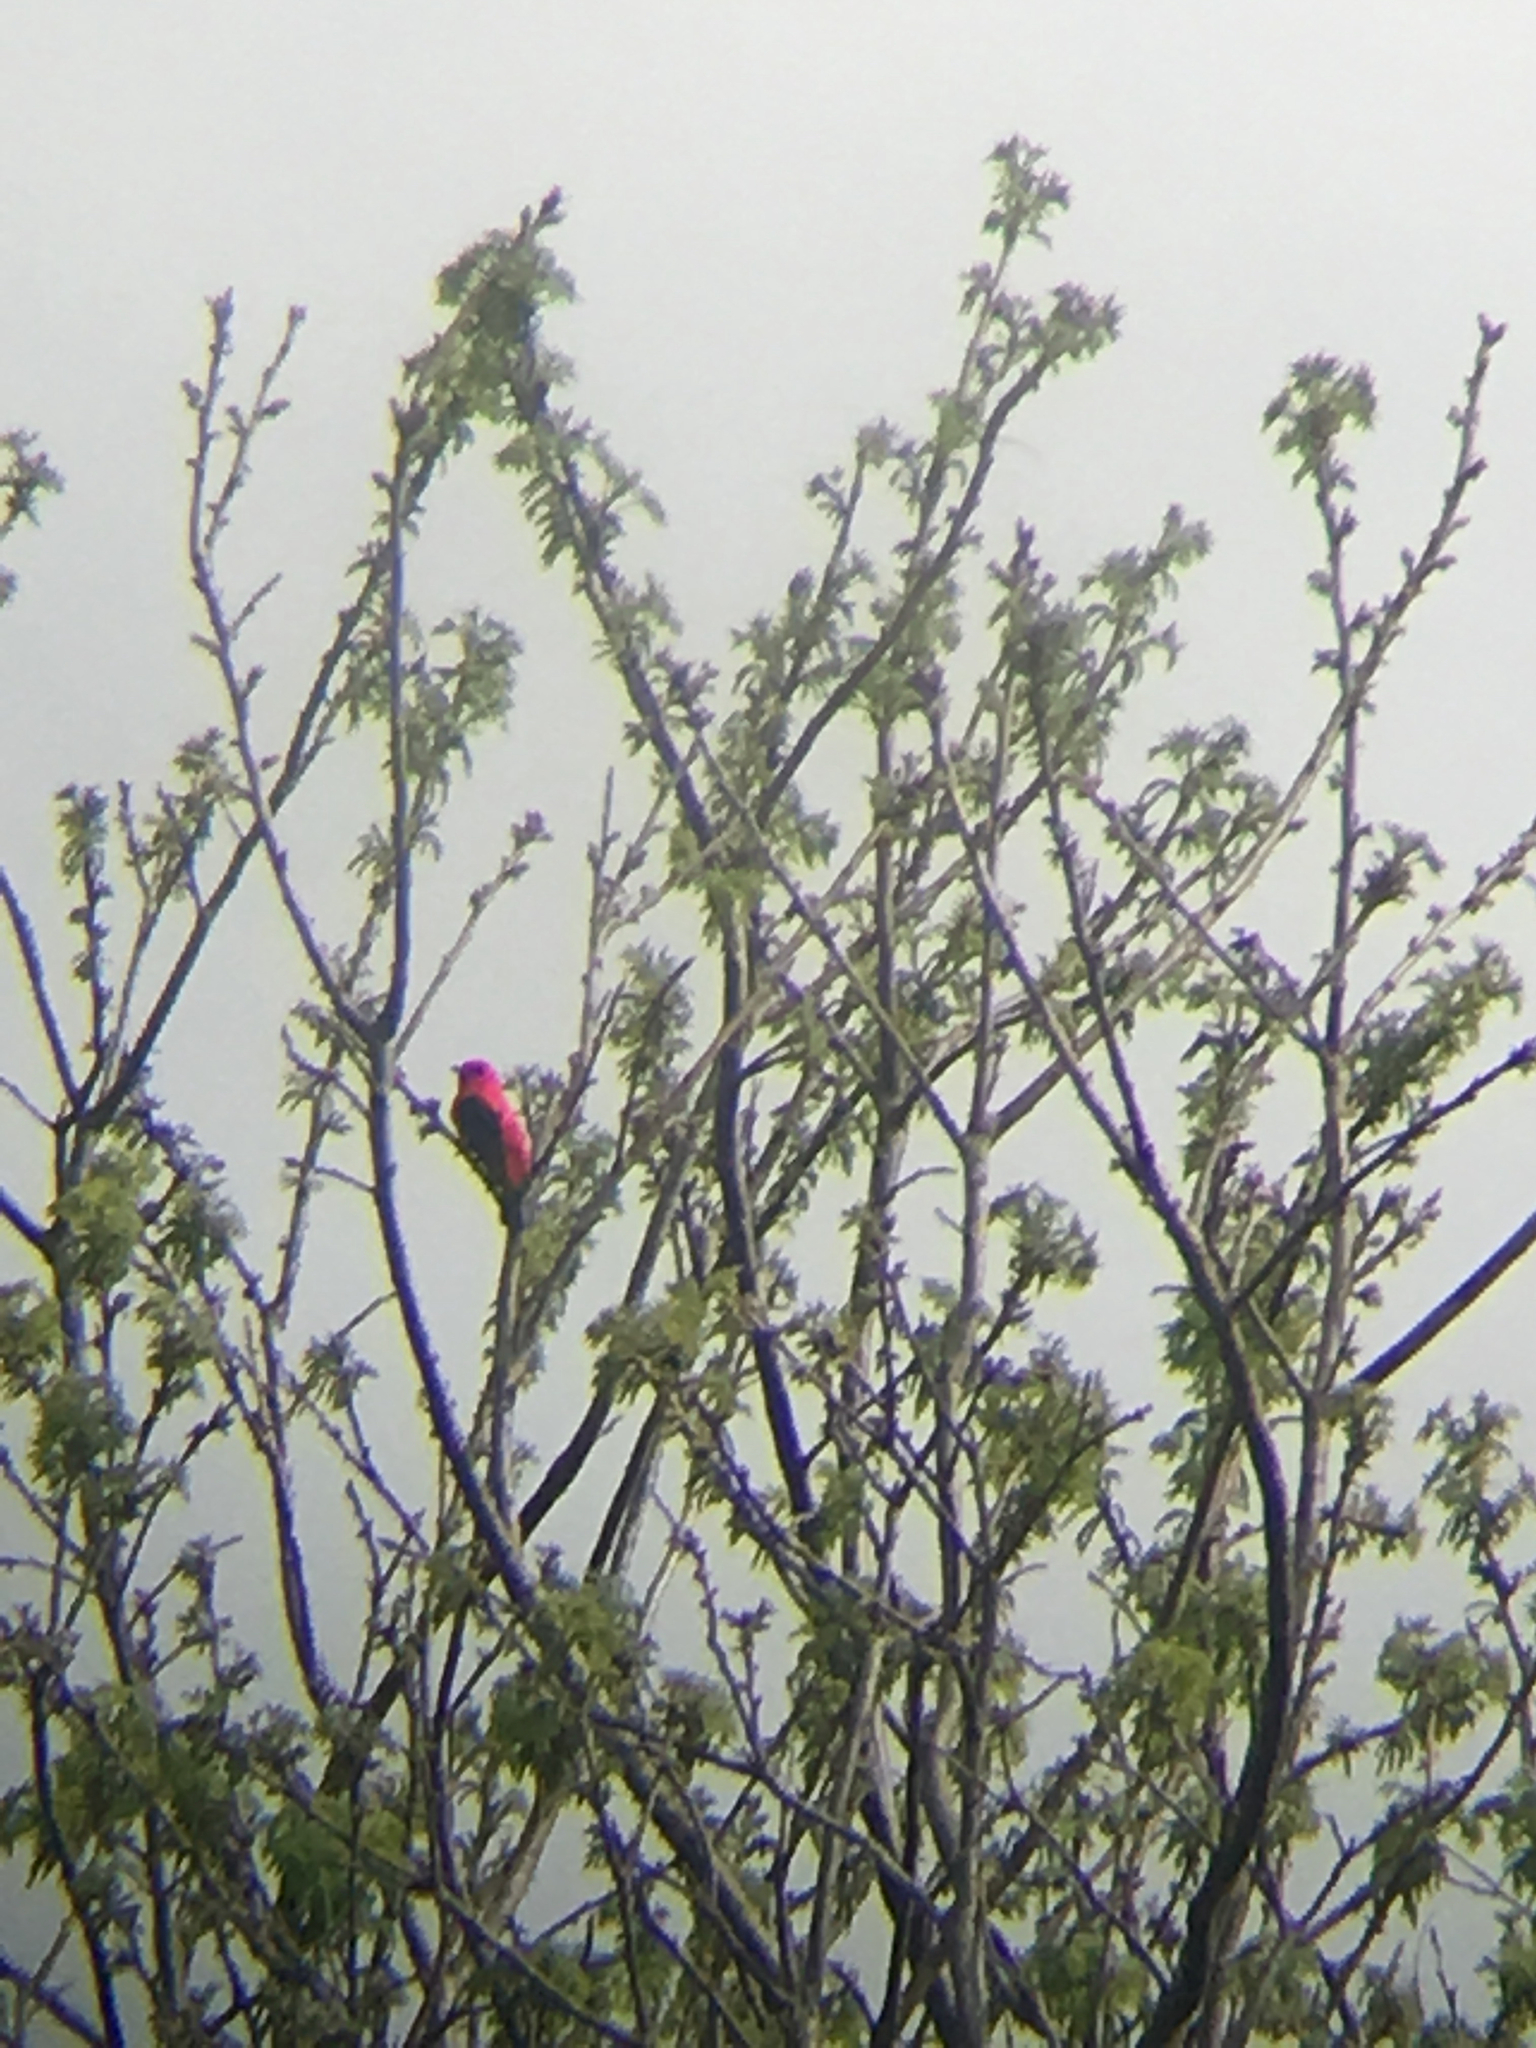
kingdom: Animalia
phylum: Chordata
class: Aves
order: Passeriformes
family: Cardinalidae
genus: Piranga
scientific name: Piranga olivacea
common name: Scarlet tanager
